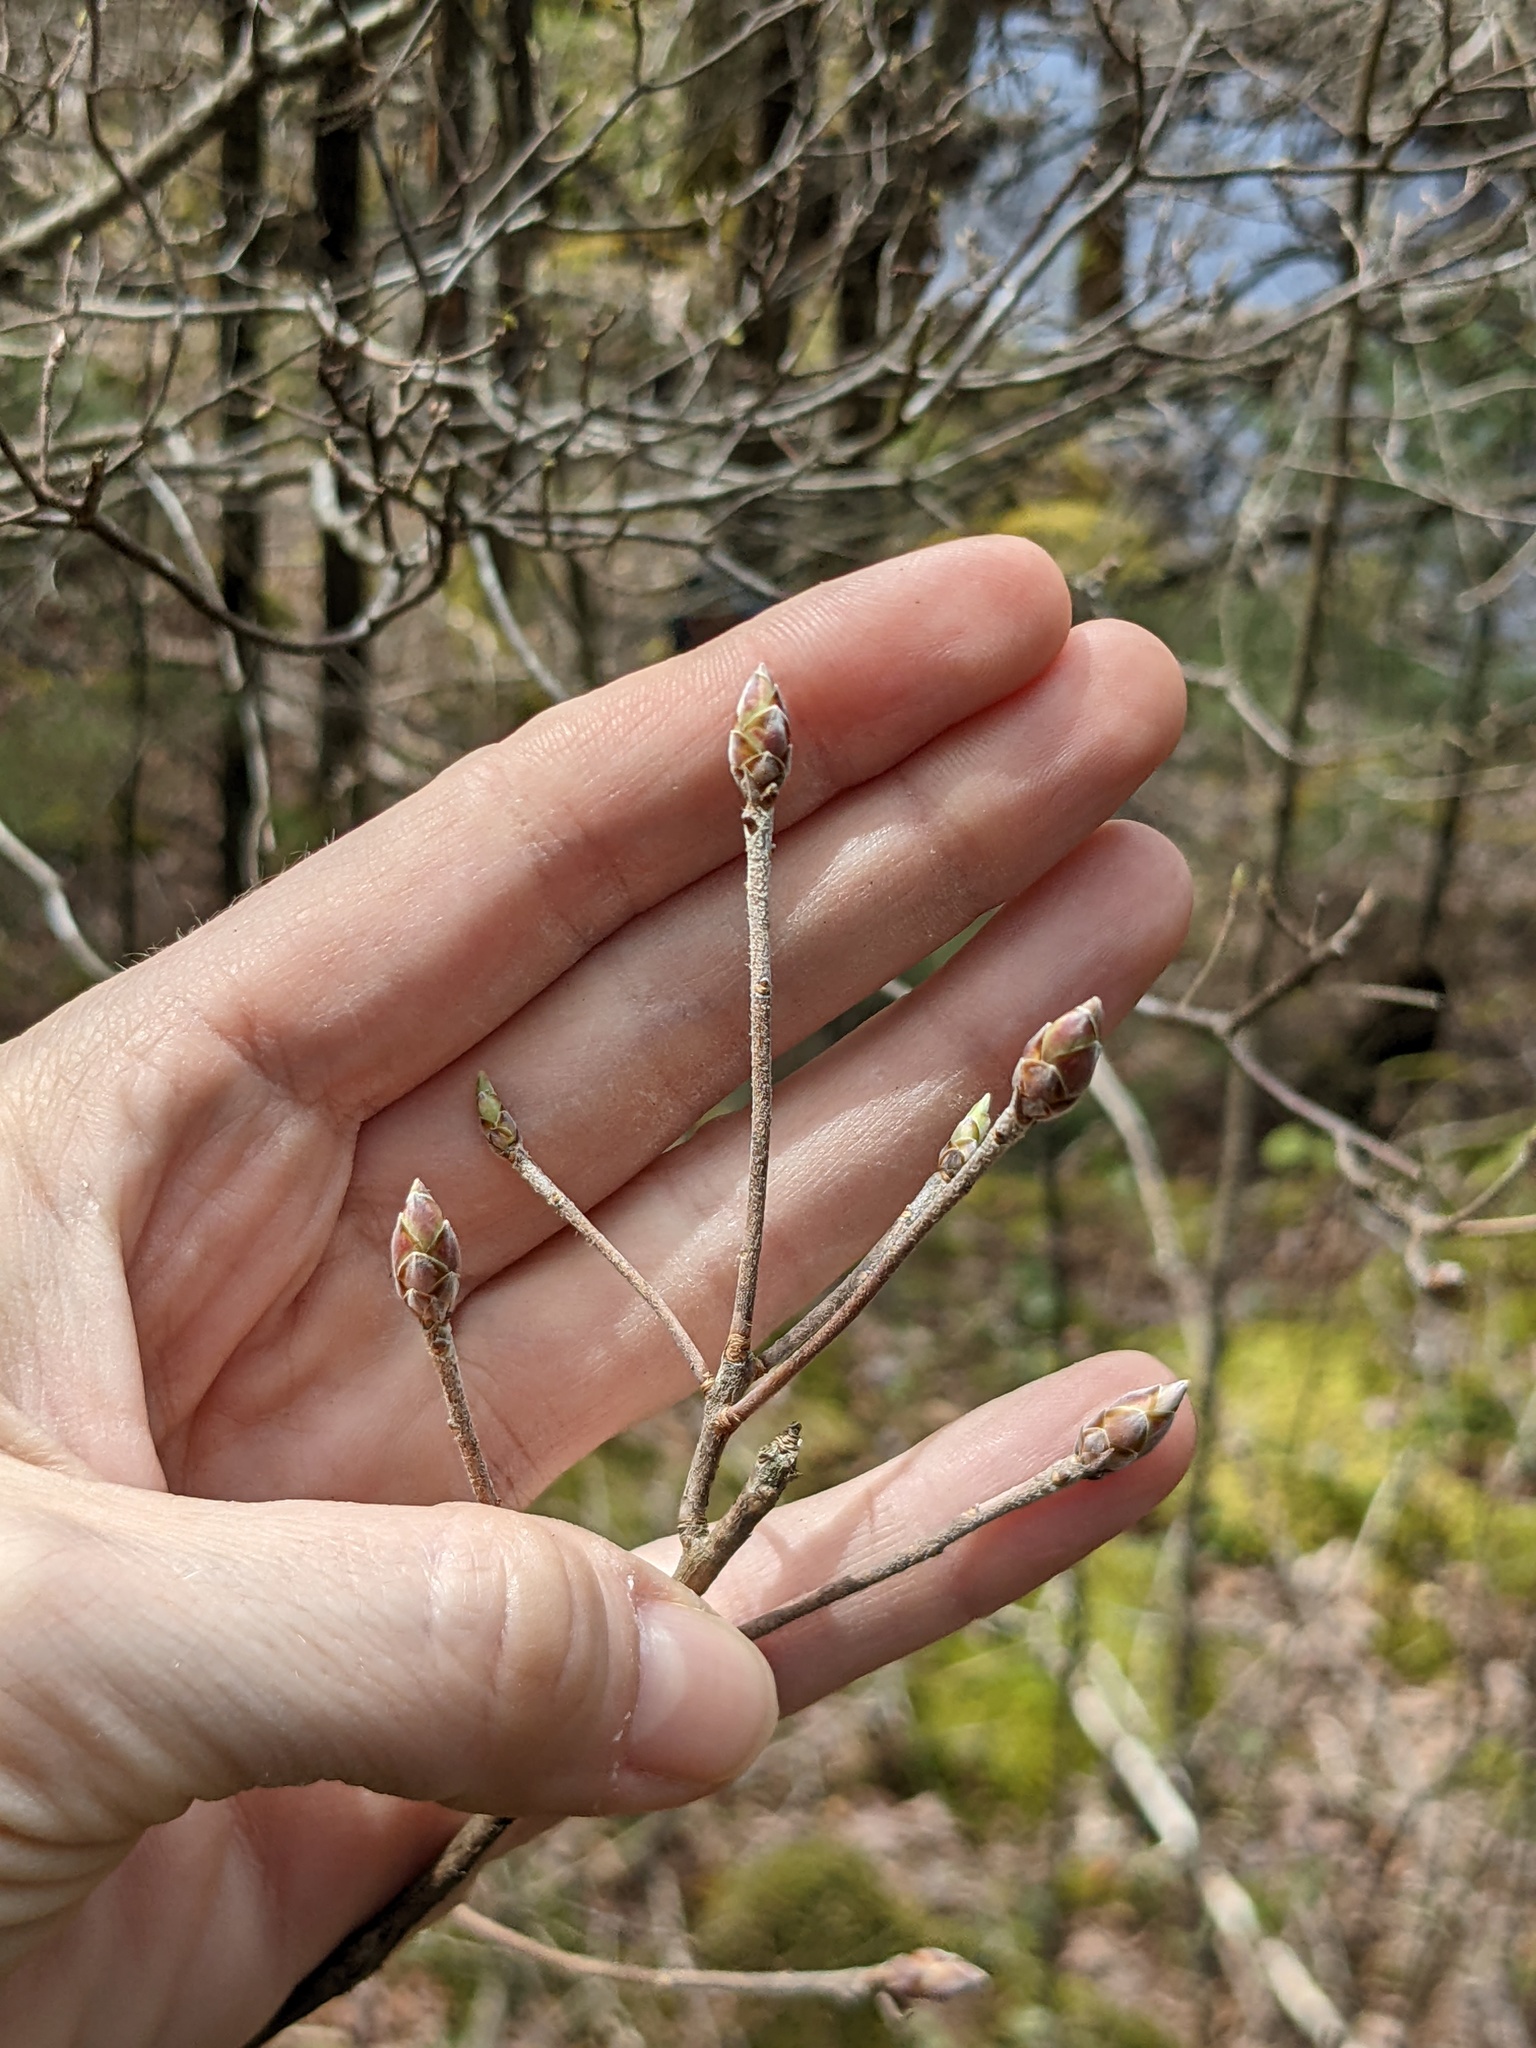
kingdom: Plantae
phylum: Tracheophyta
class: Magnoliopsida
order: Ericales
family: Ericaceae
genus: Rhododendron
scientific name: Rhododendron roseum
